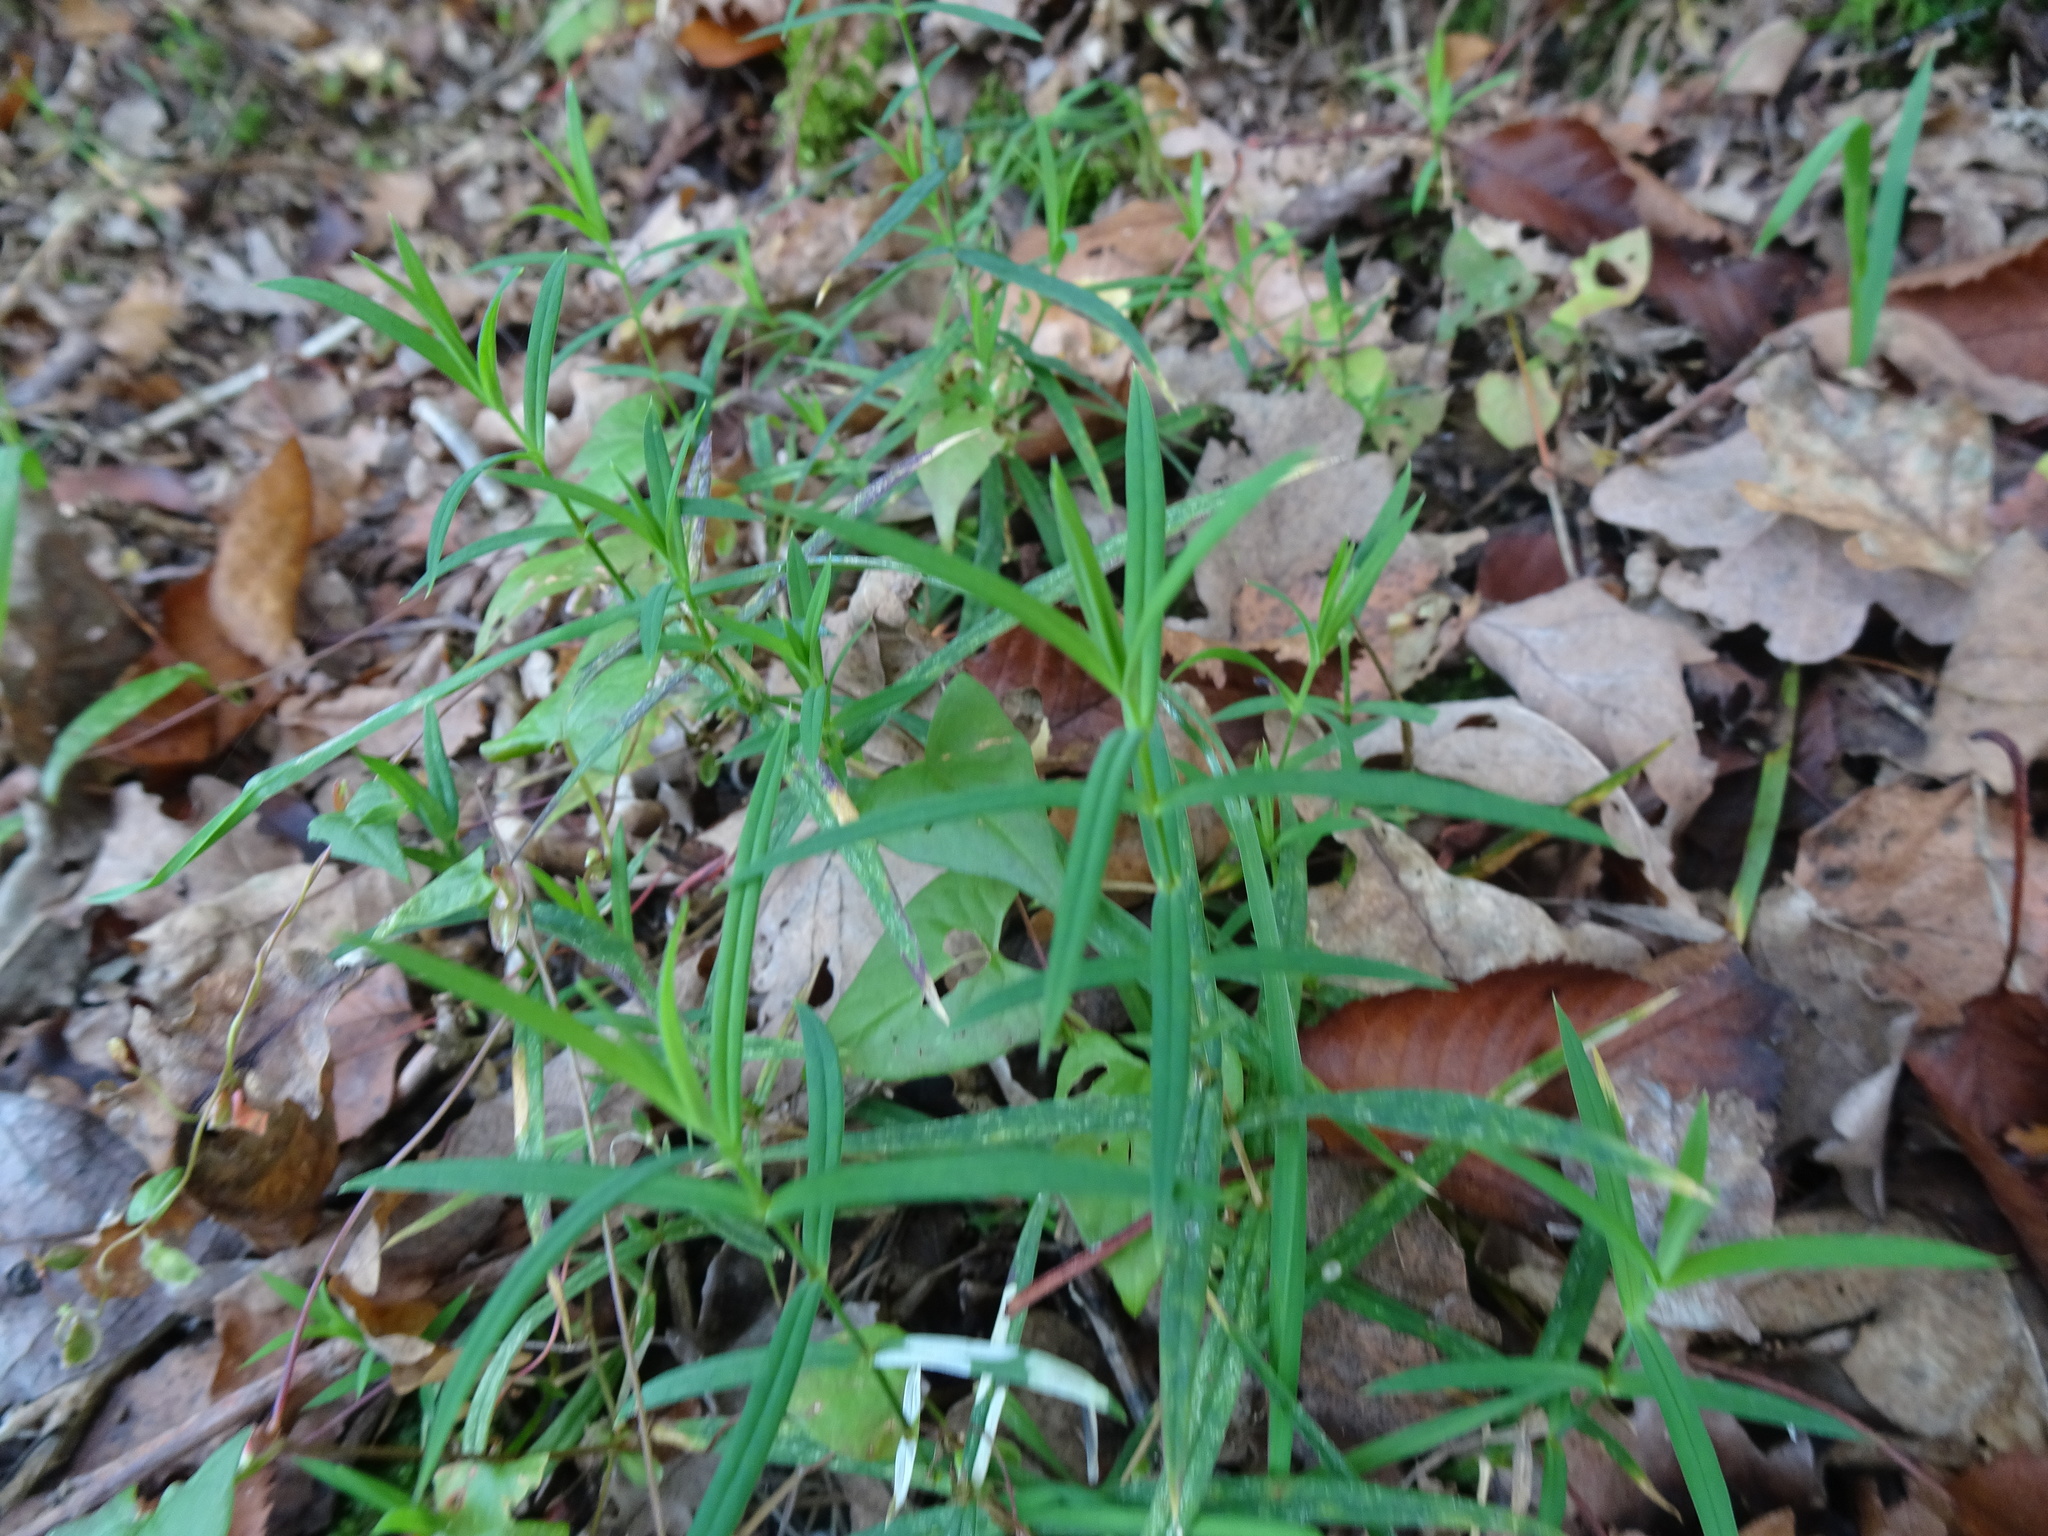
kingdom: Plantae
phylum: Tracheophyta
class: Magnoliopsida
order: Caryophyllales
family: Caryophyllaceae
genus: Rabelera
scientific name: Rabelera holostea
